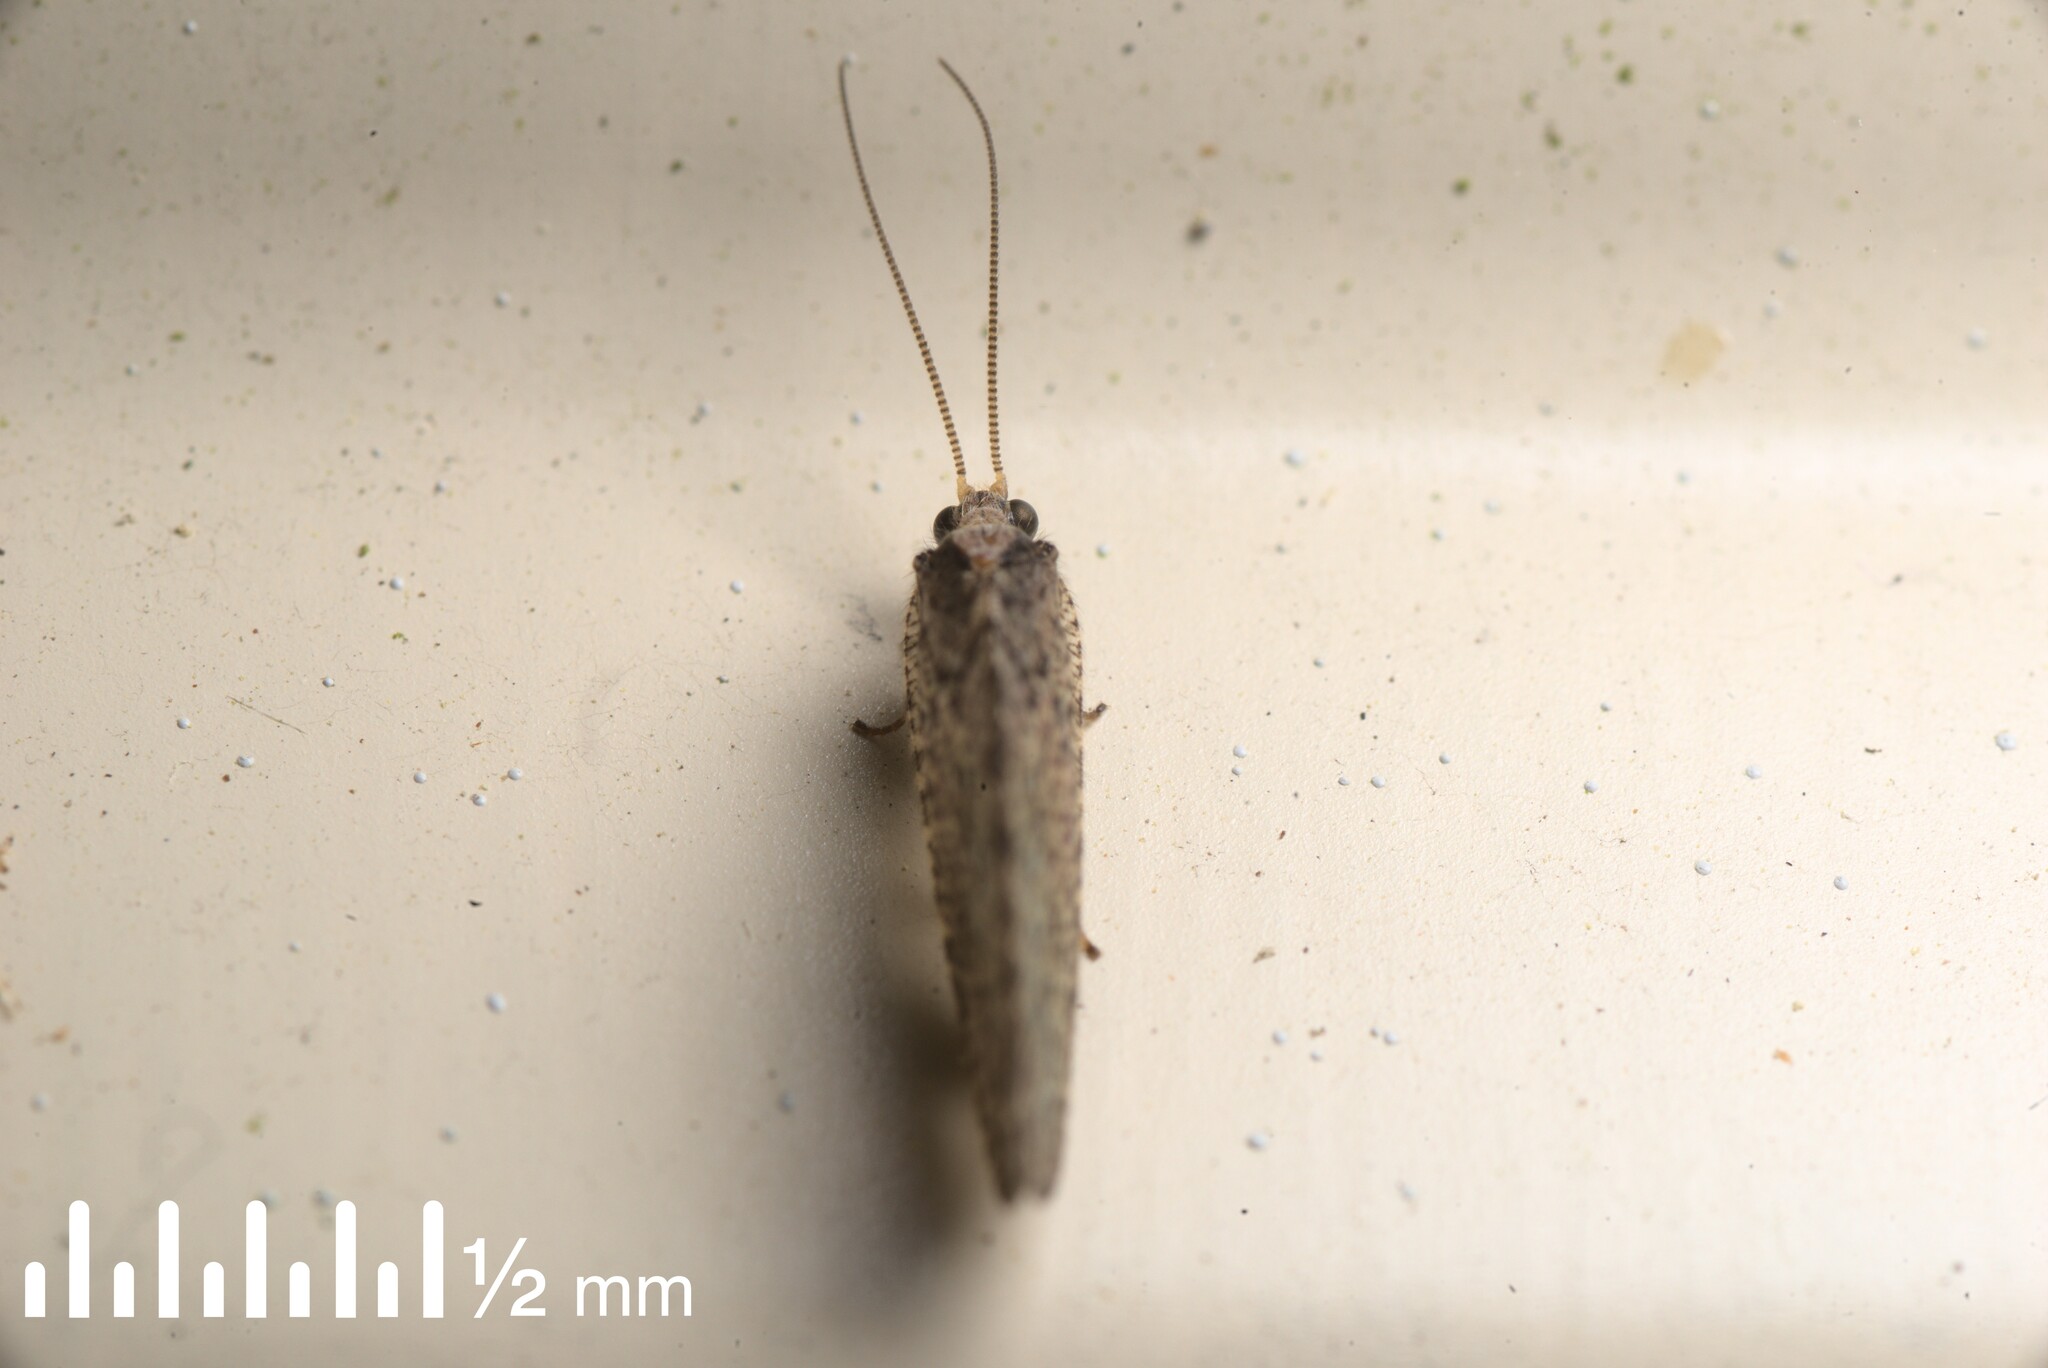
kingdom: Animalia
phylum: Arthropoda
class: Insecta
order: Neuroptera
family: Hemerobiidae
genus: Wesmaelius
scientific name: Wesmaelius subnebulosus
